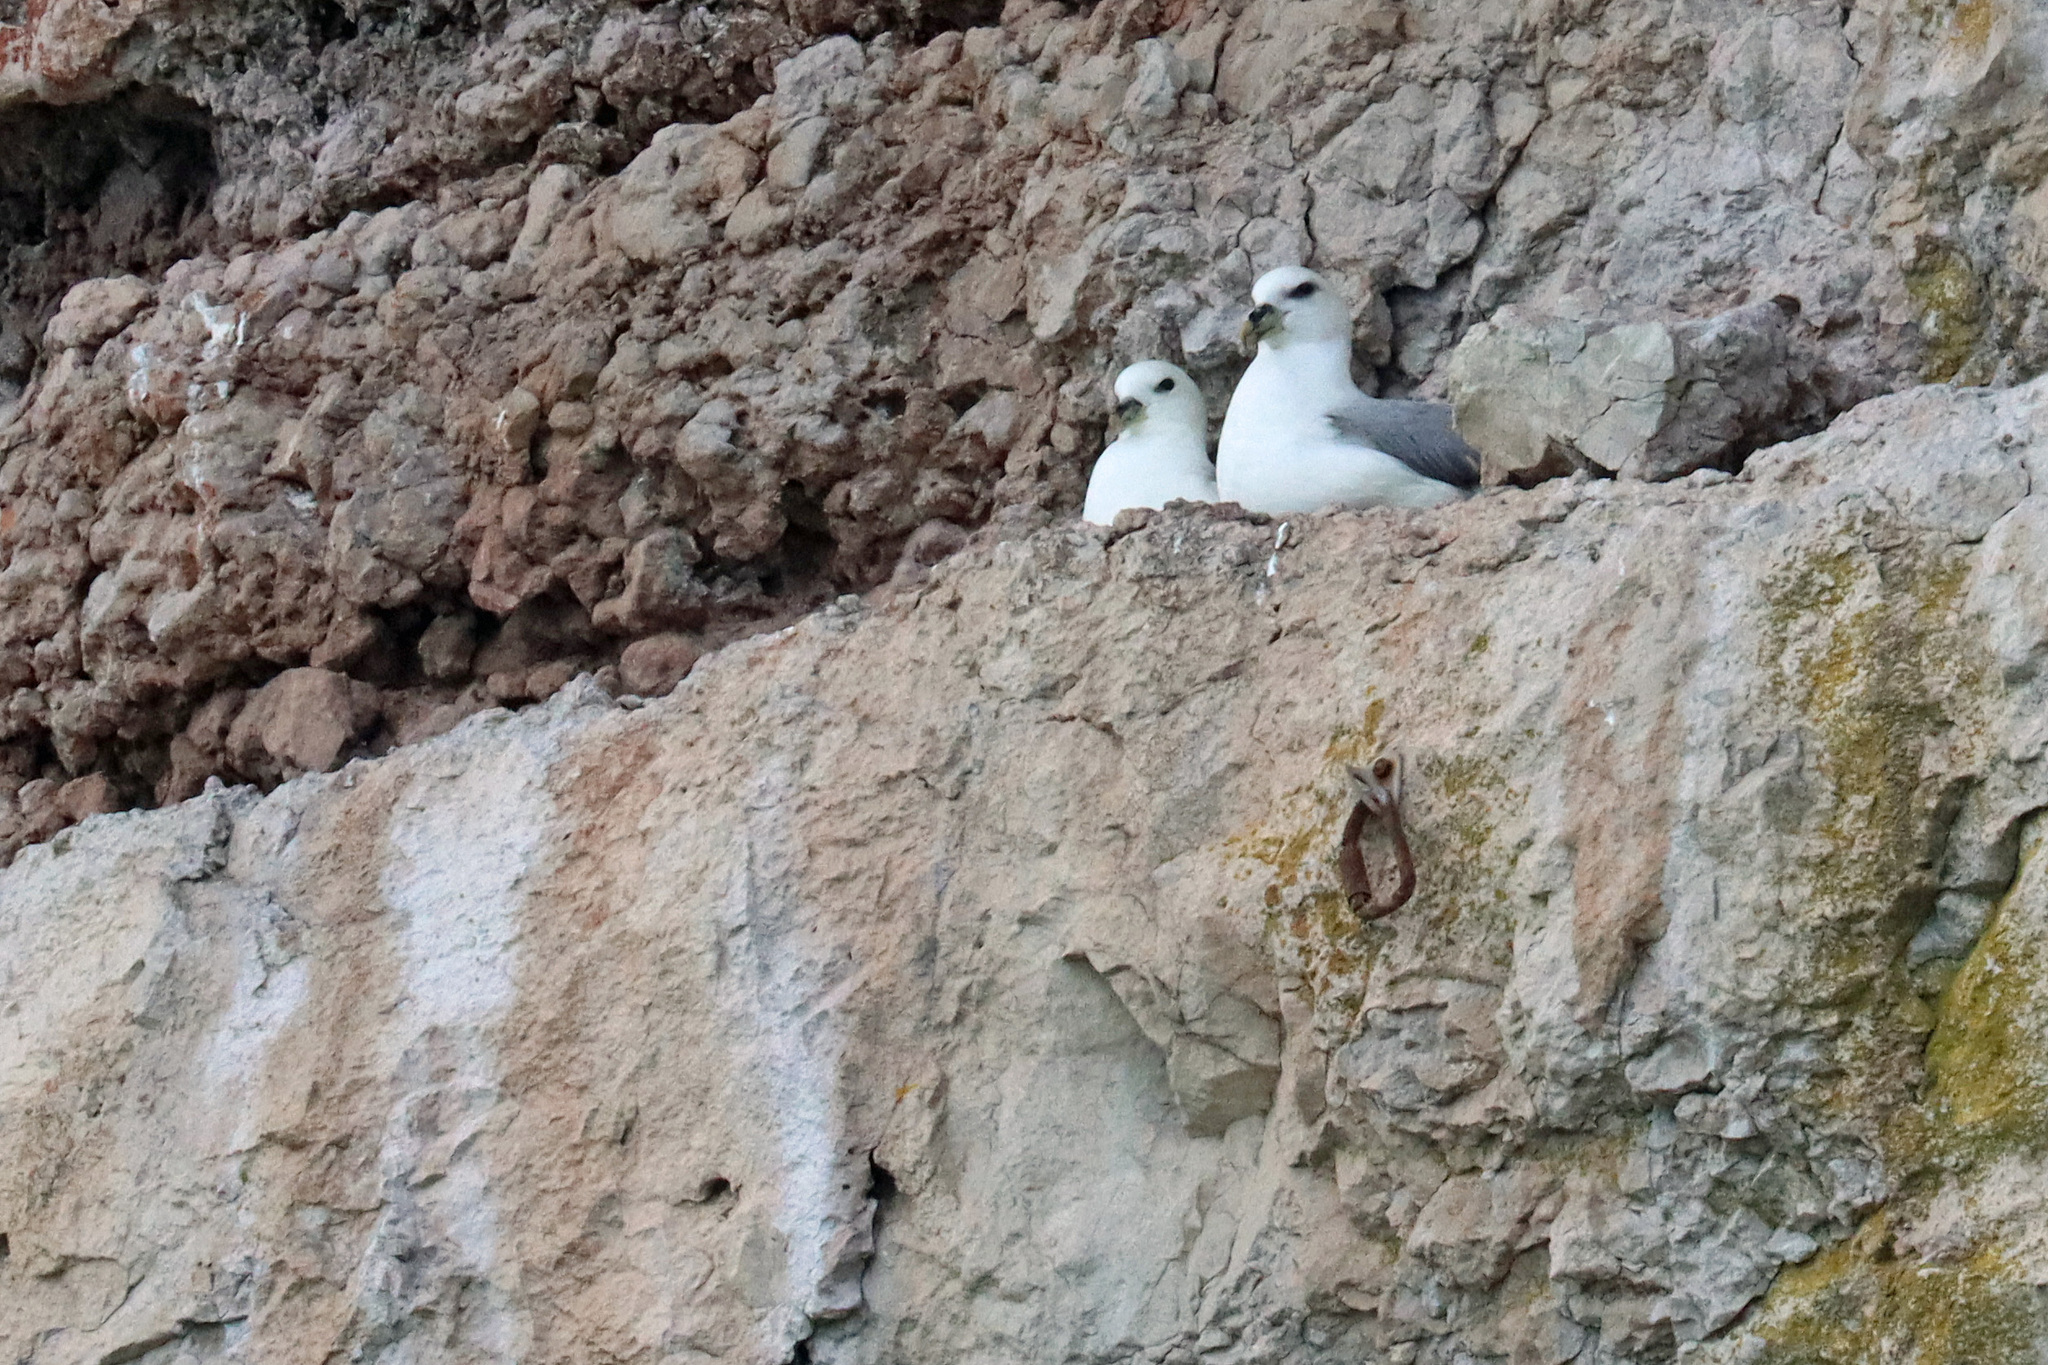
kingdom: Animalia
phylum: Chordata
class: Aves
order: Procellariiformes
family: Procellariidae
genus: Fulmarus
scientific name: Fulmarus glacialis
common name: Northern fulmar
